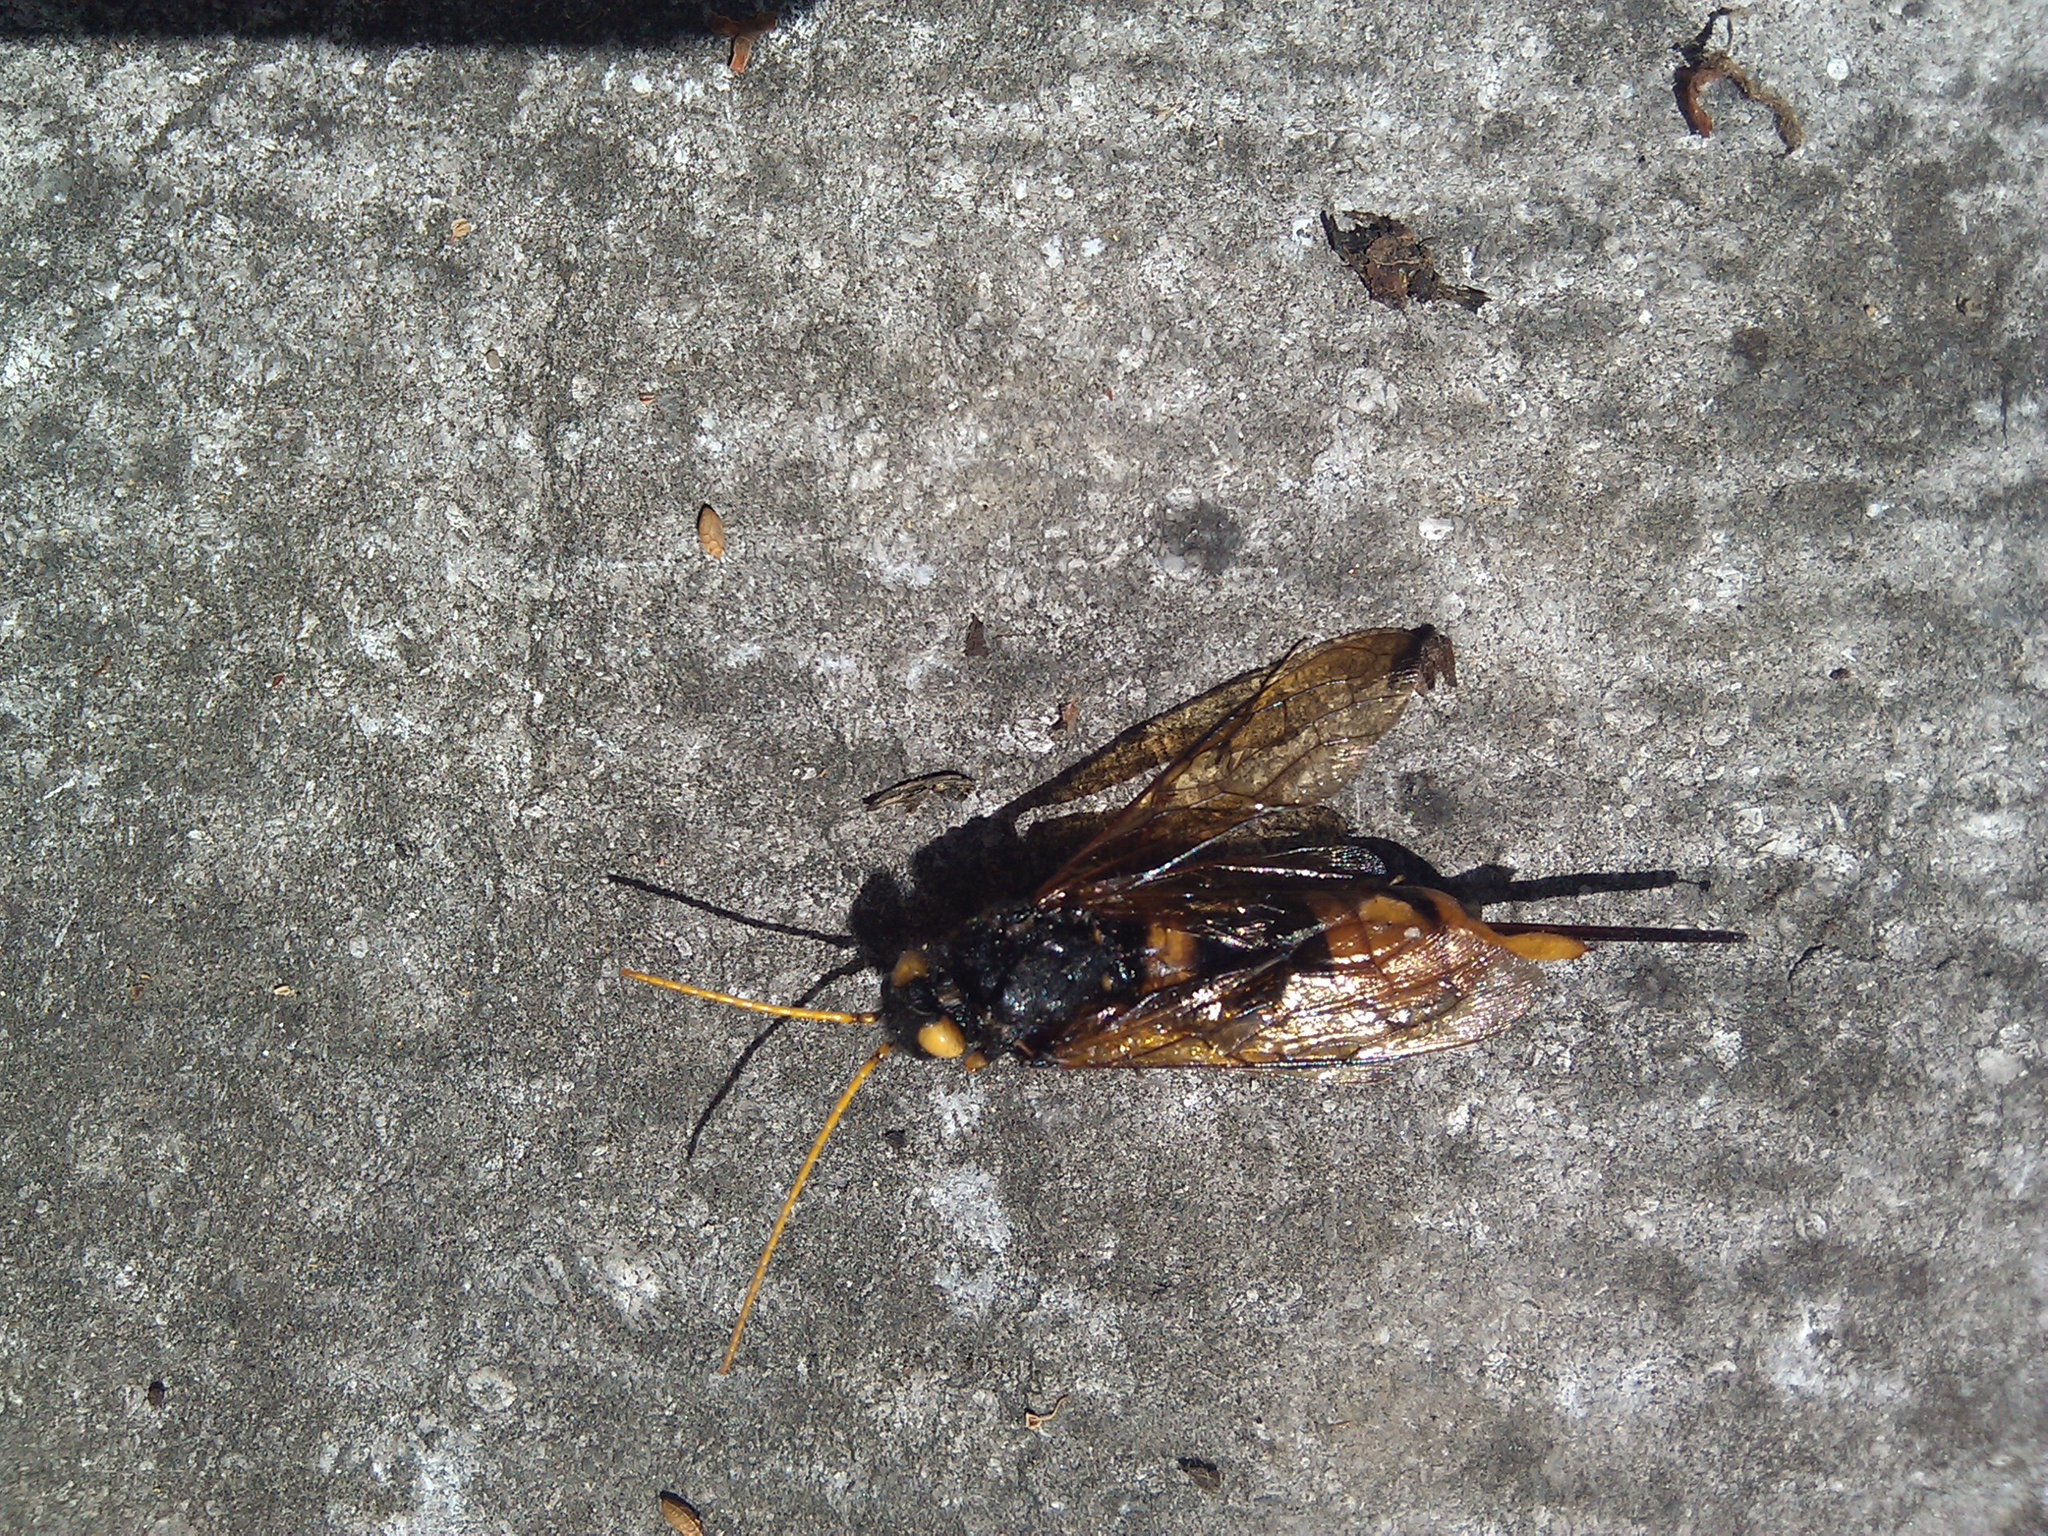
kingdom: Animalia
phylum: Arthropoda
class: Insecta
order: Hymenoptera
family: Siricidae
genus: Urocerus
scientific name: Urocerus gigas
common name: Giant woodwasp
